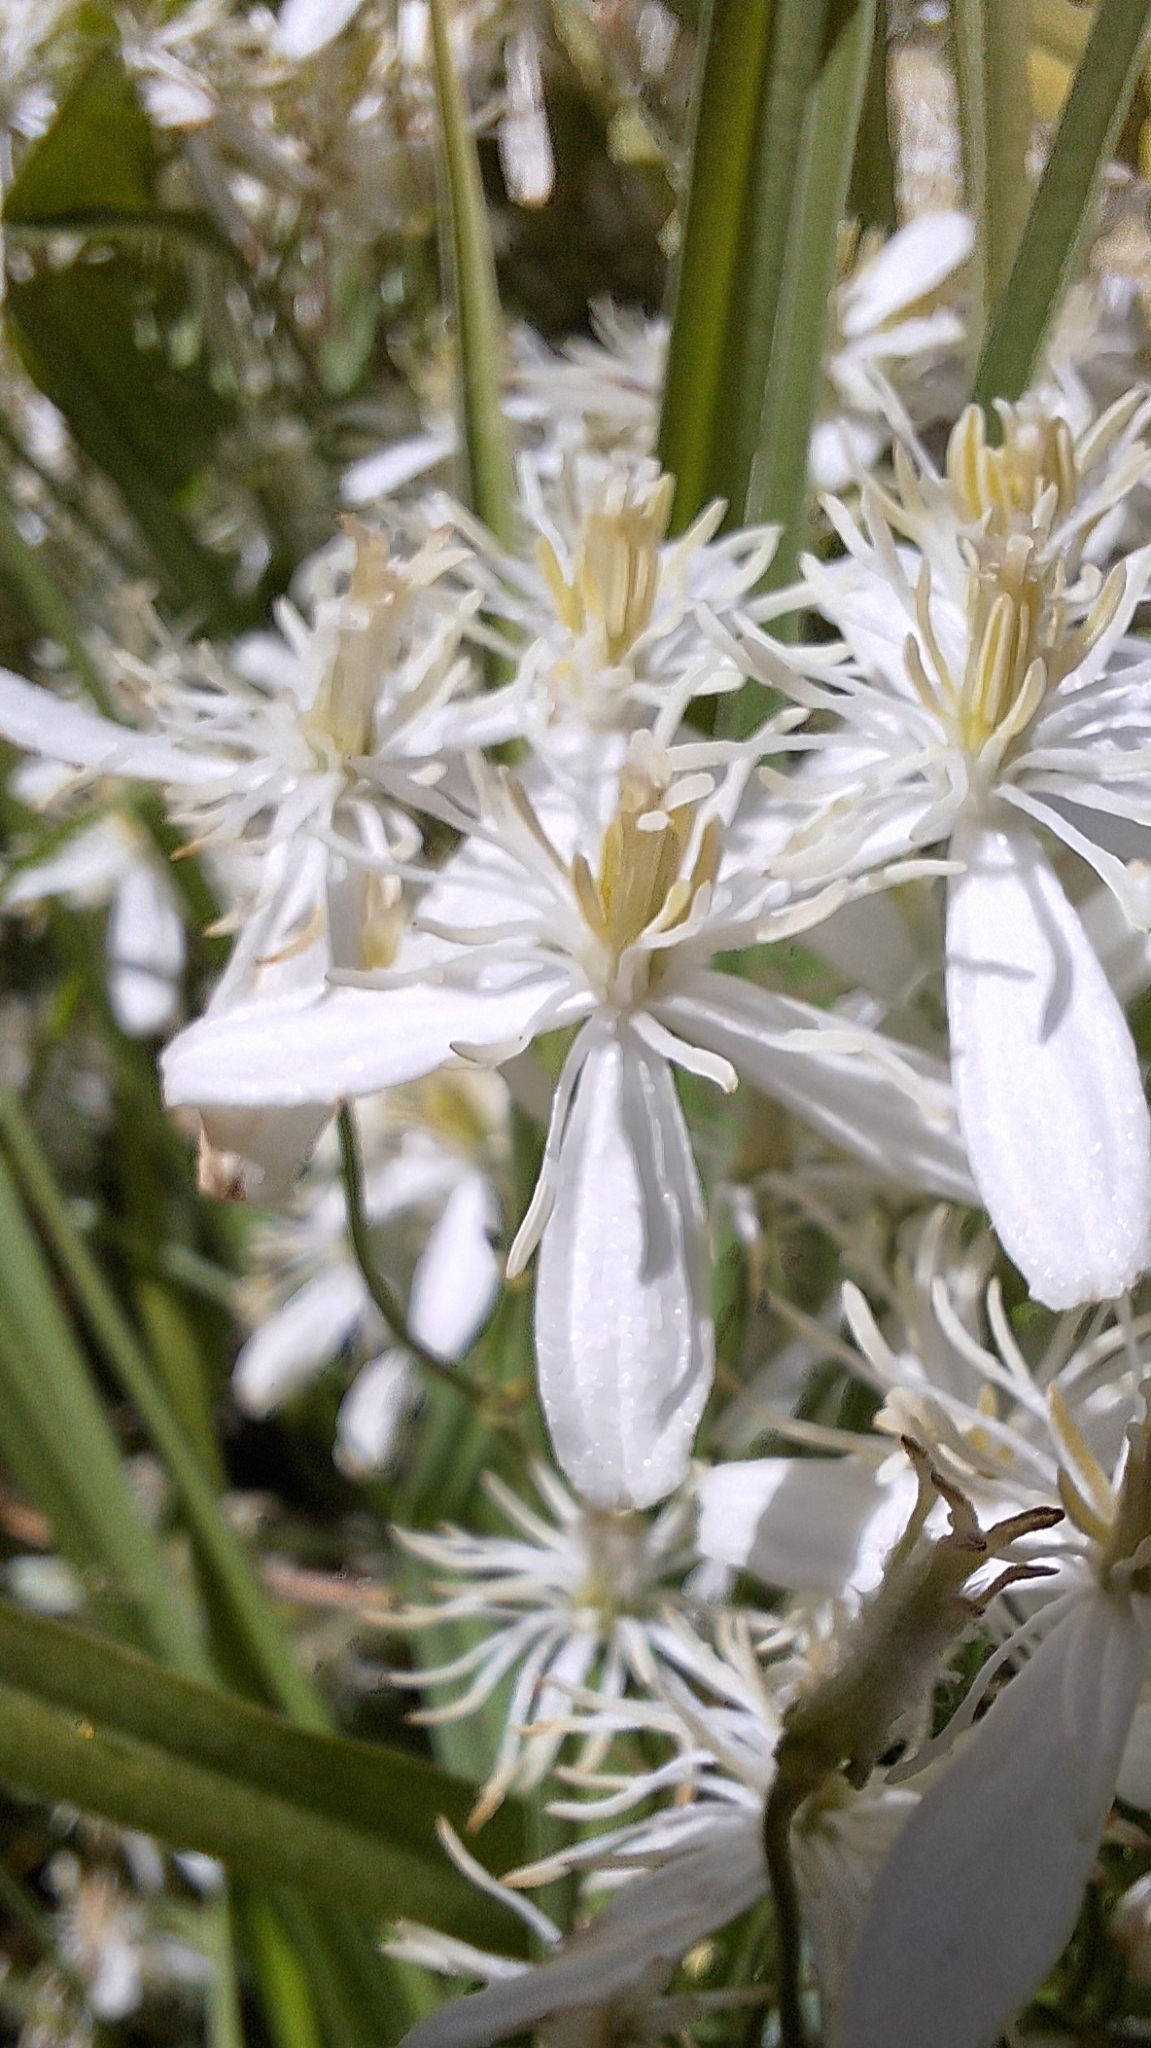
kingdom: Plantae
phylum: Tracheophyta
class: Magnoliopsida
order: Ranunculales
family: Ranunculaceae
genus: Clematis
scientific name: Clematis vitalba
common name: Evergreen clematis
